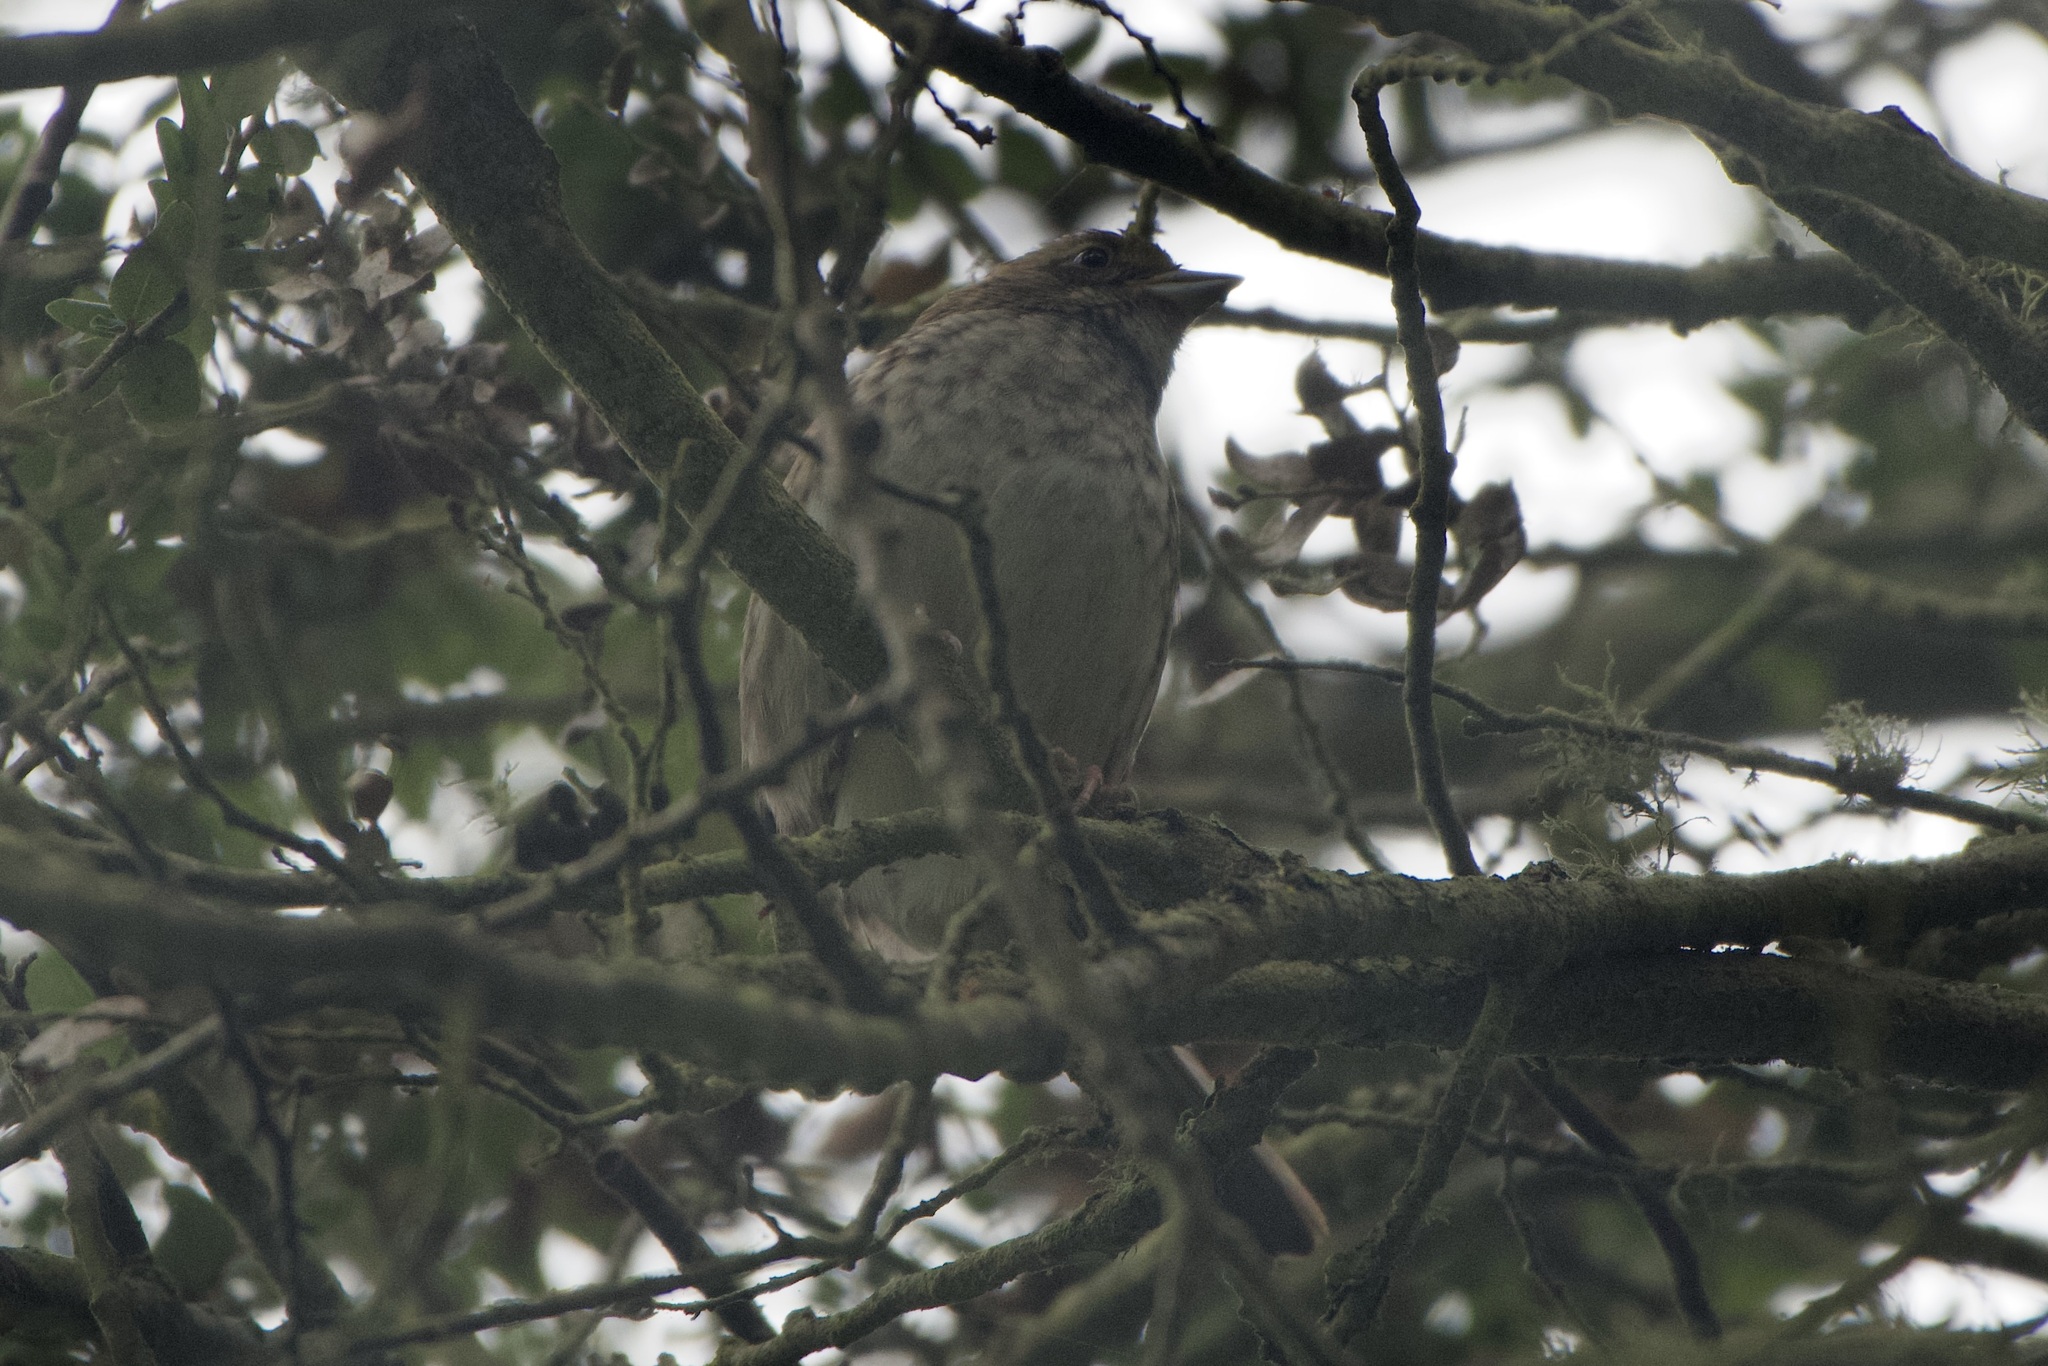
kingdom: Animalia
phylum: Chordata
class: Aves
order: Passeriformes
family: Passerellidae
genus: Zonotrichia
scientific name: Zonotrichia albicollis
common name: White-throated sparrow
